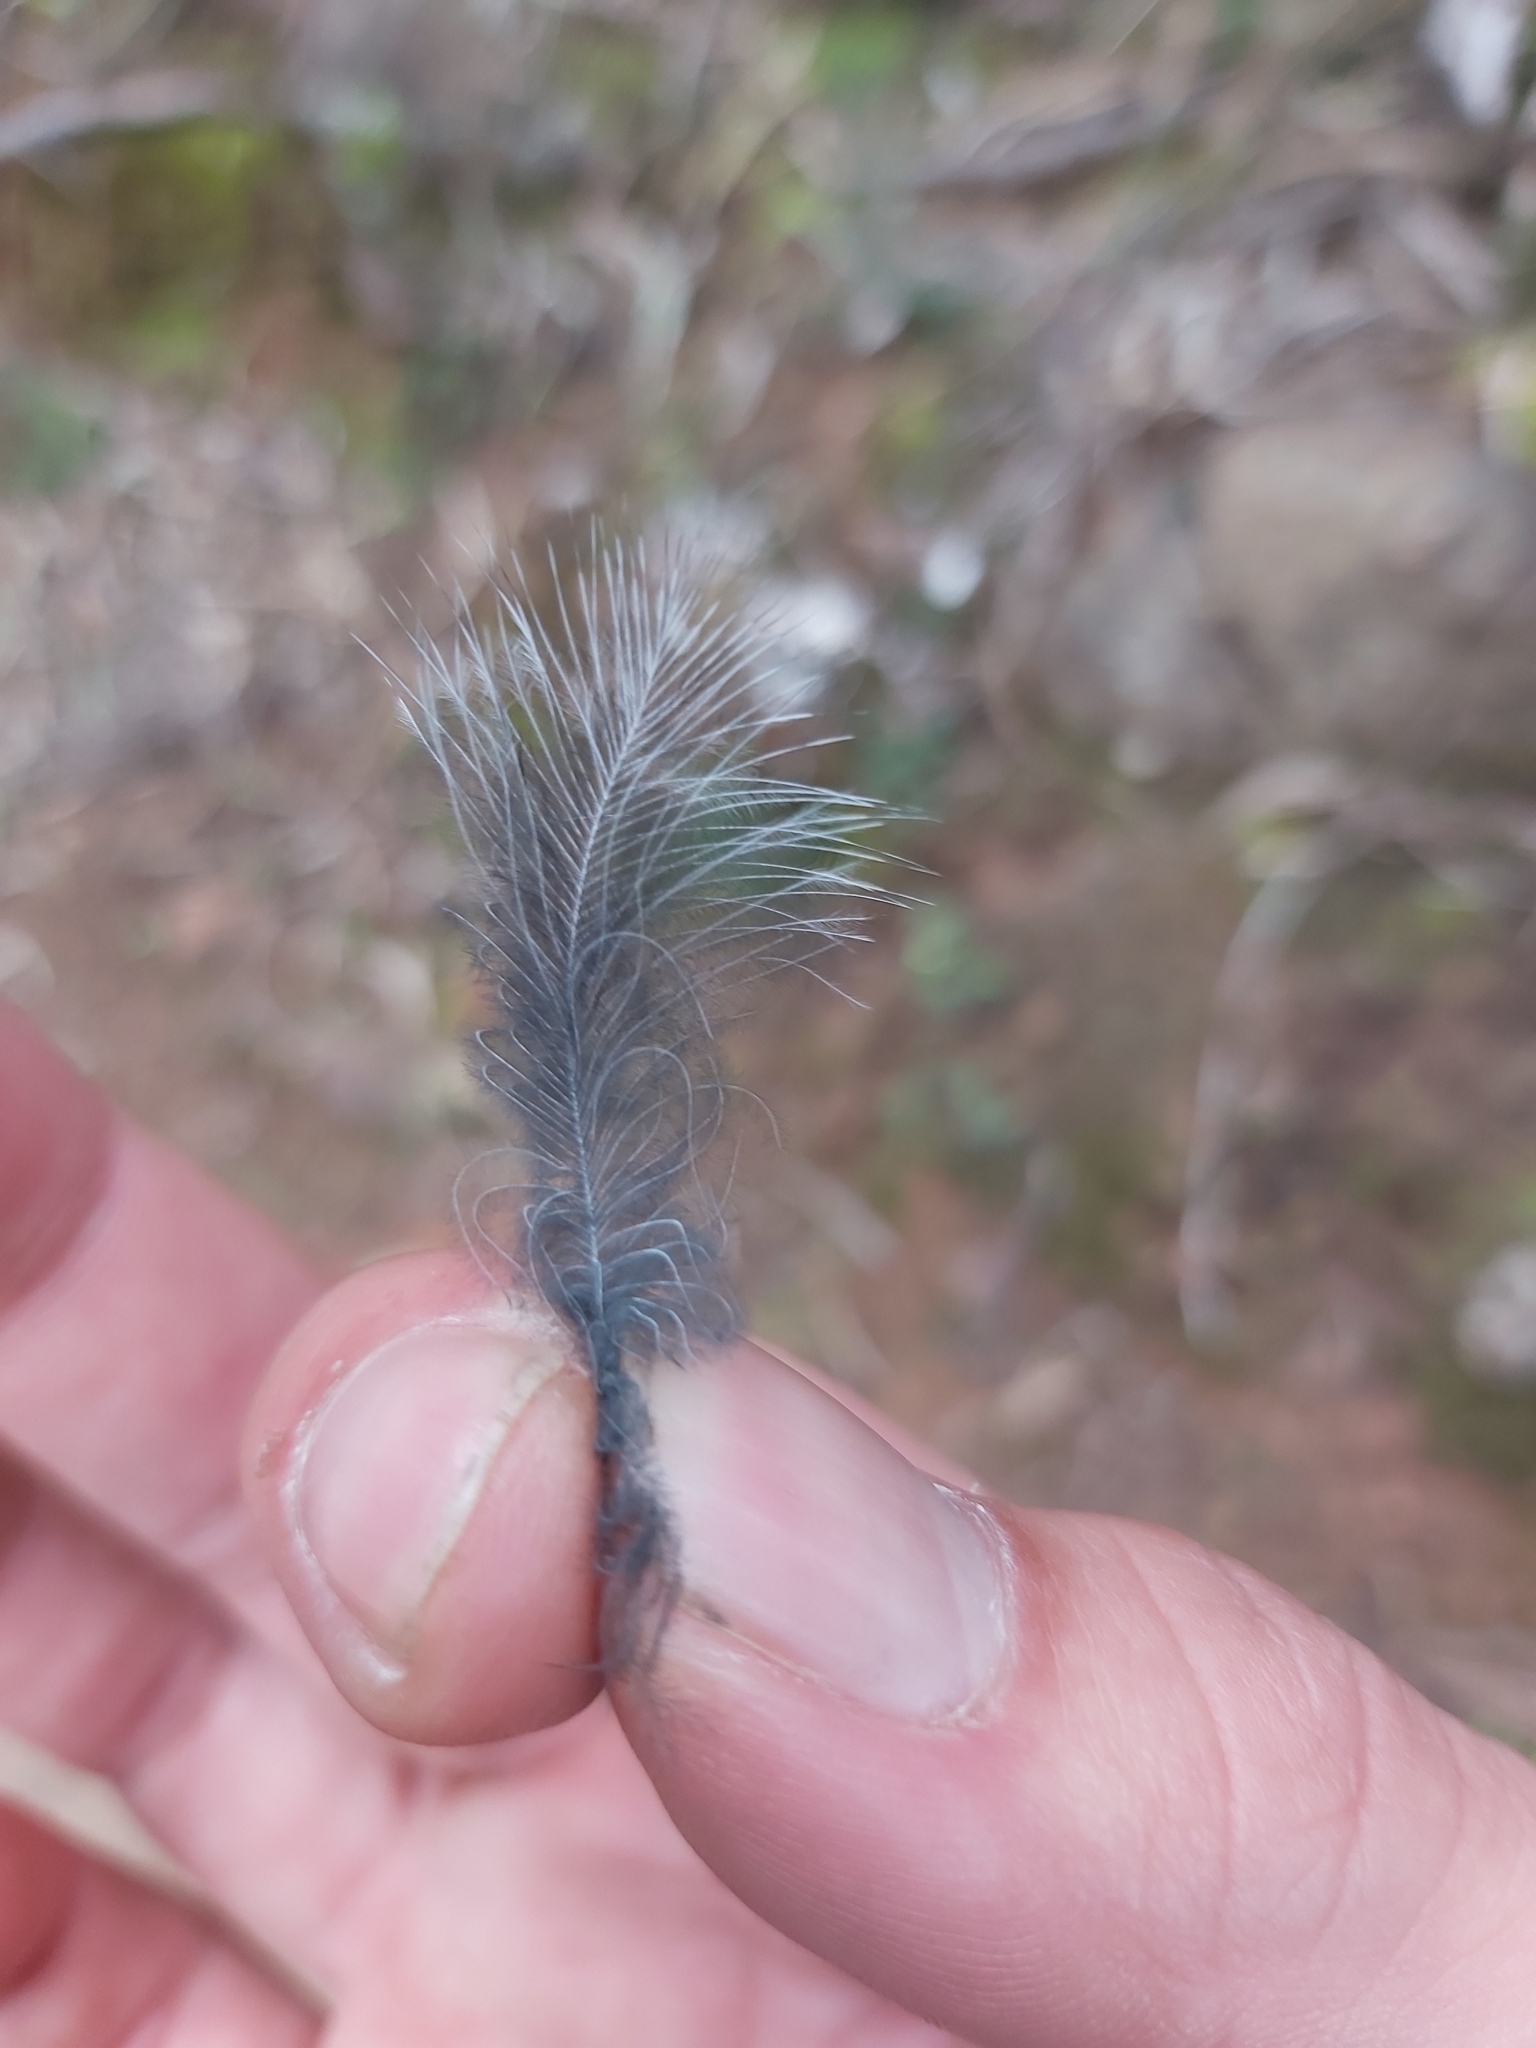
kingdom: Animalia
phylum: Chordata
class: Aves
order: Caprimulgiformes
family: Podargidae
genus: Podargus
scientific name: Podargus strigoides
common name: Tawny frogmouth
